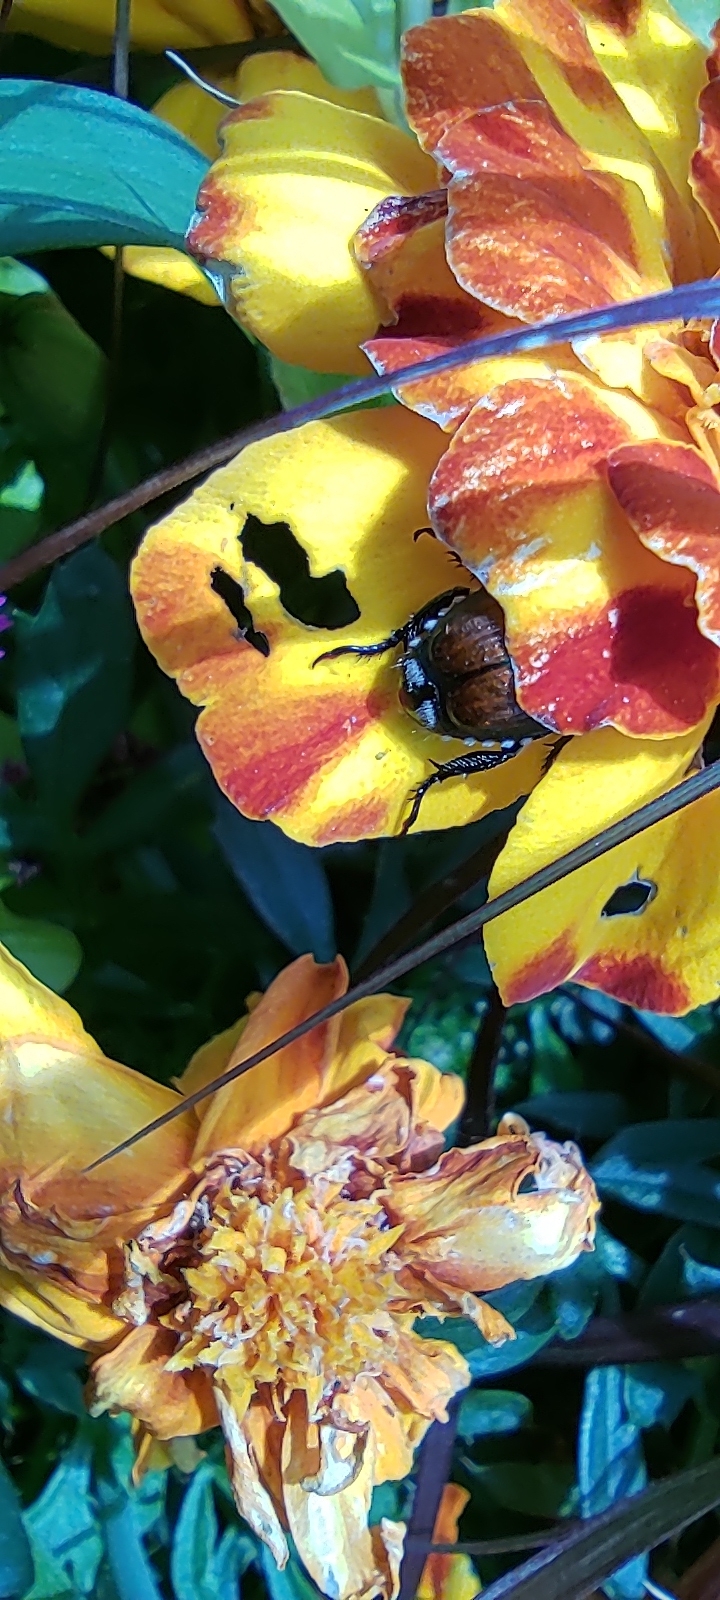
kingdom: Animalia
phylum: Arthropoda
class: Insecta
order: Coleoptera
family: Scarabaeidae
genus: Popillia
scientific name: Popillia japonica
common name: Japanese beetle
